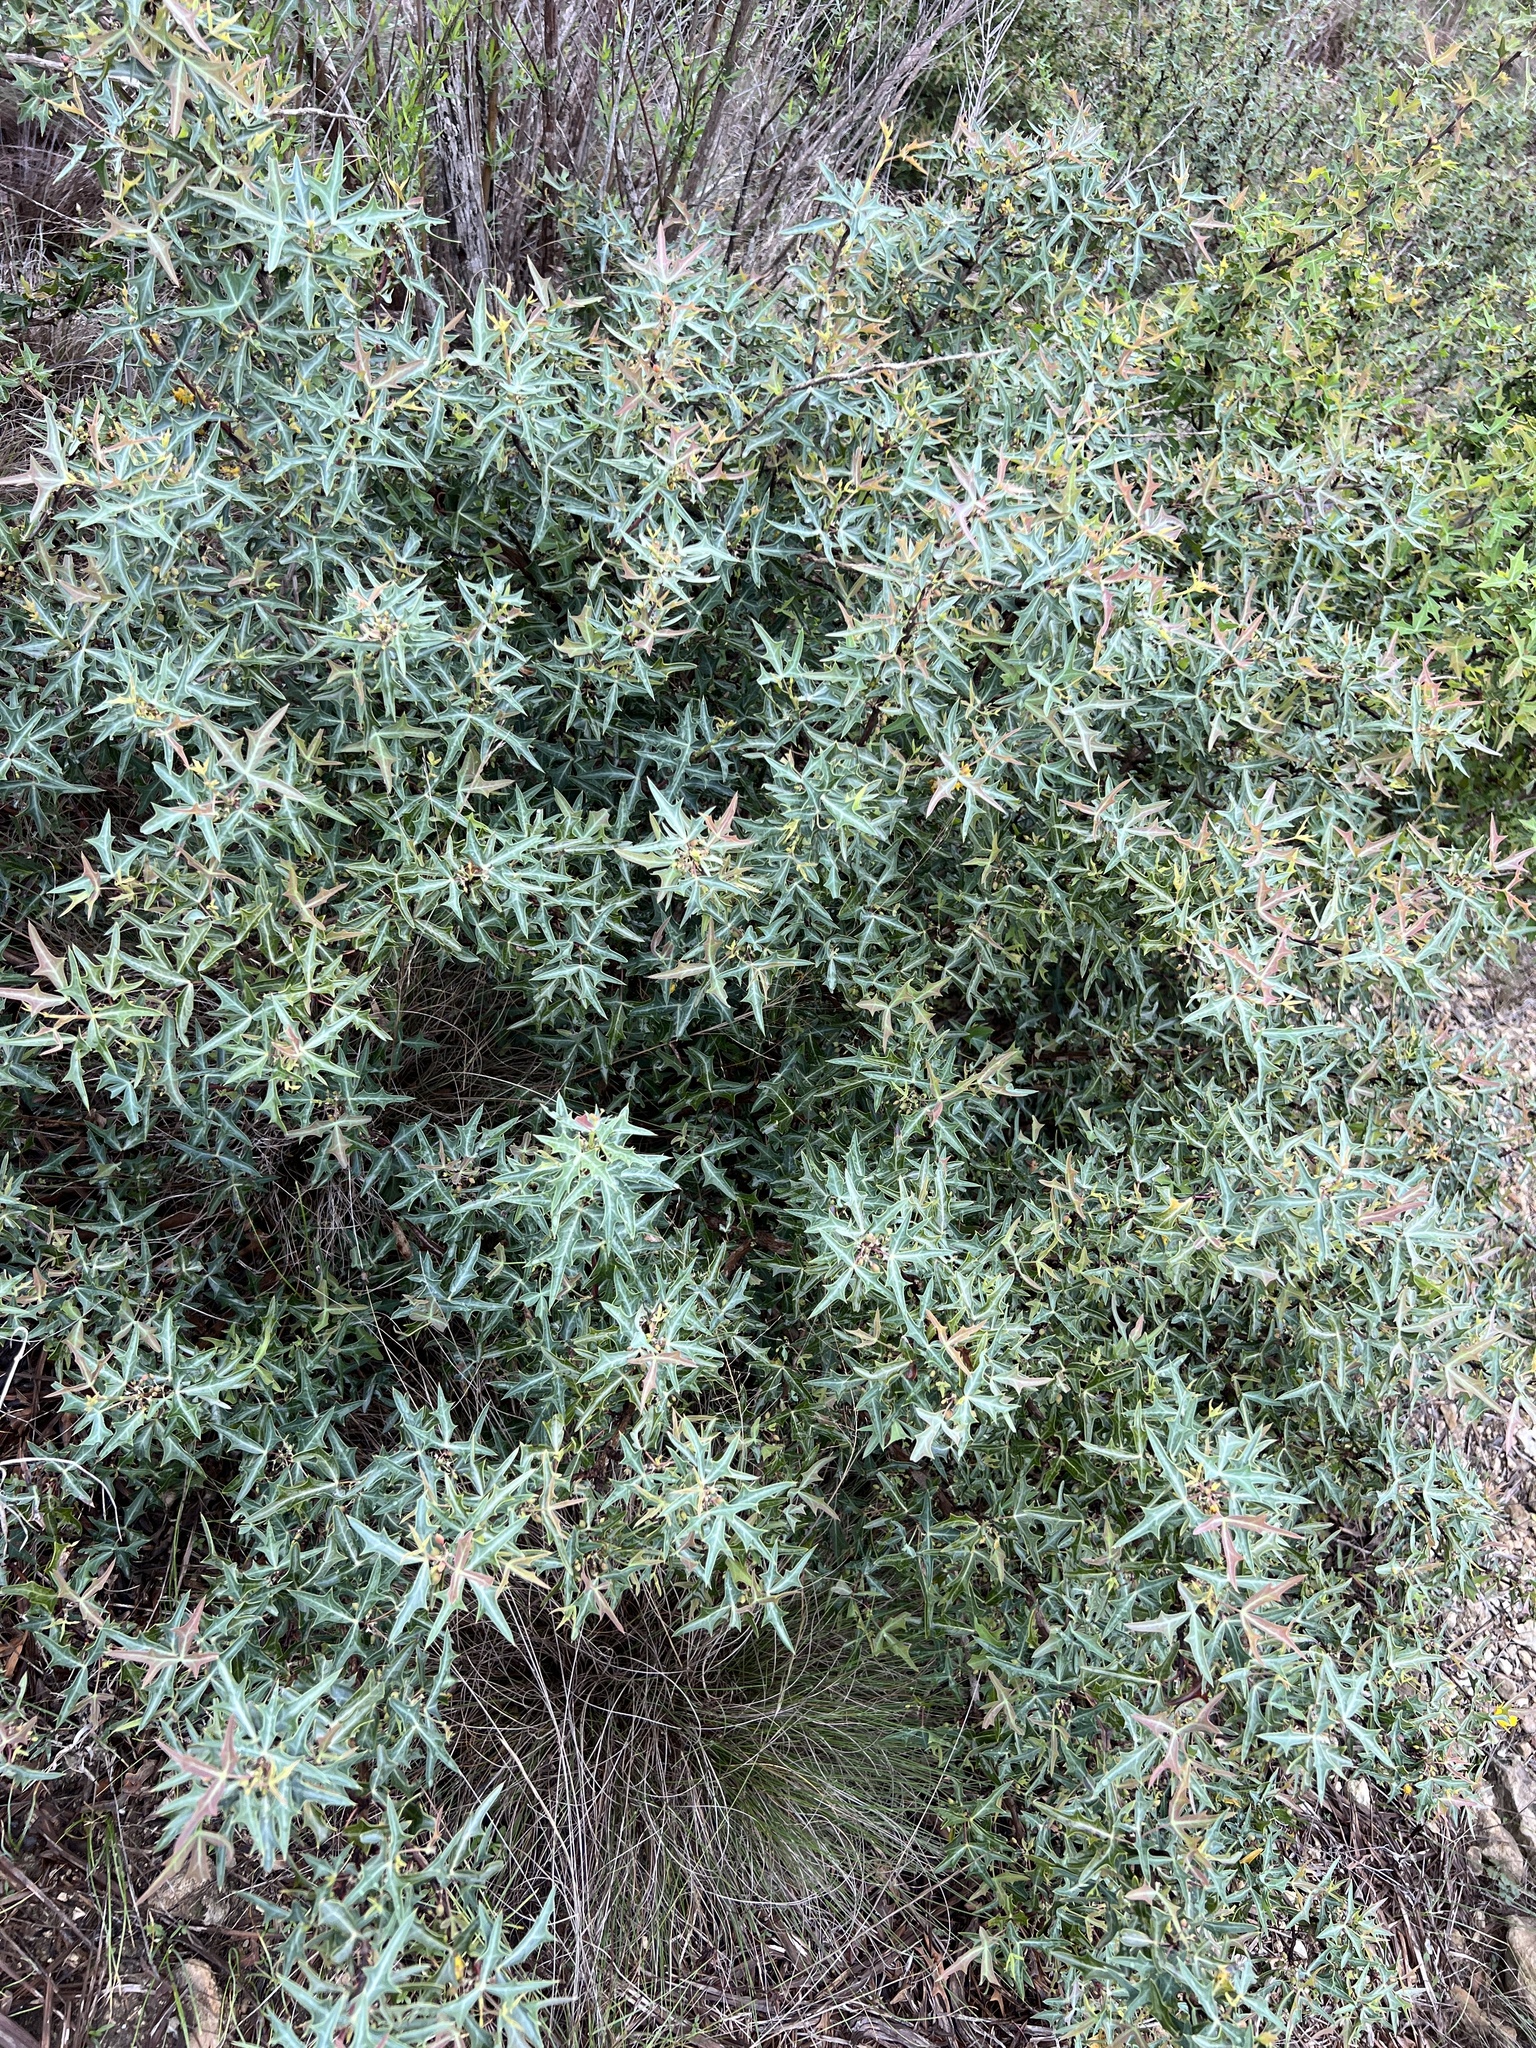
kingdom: Plantae
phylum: Tracheophyta
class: Magnoliopsida
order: Ranunculales
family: Berberidaceae
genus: Alloberberis
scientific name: Alloberberis trifoliolata
